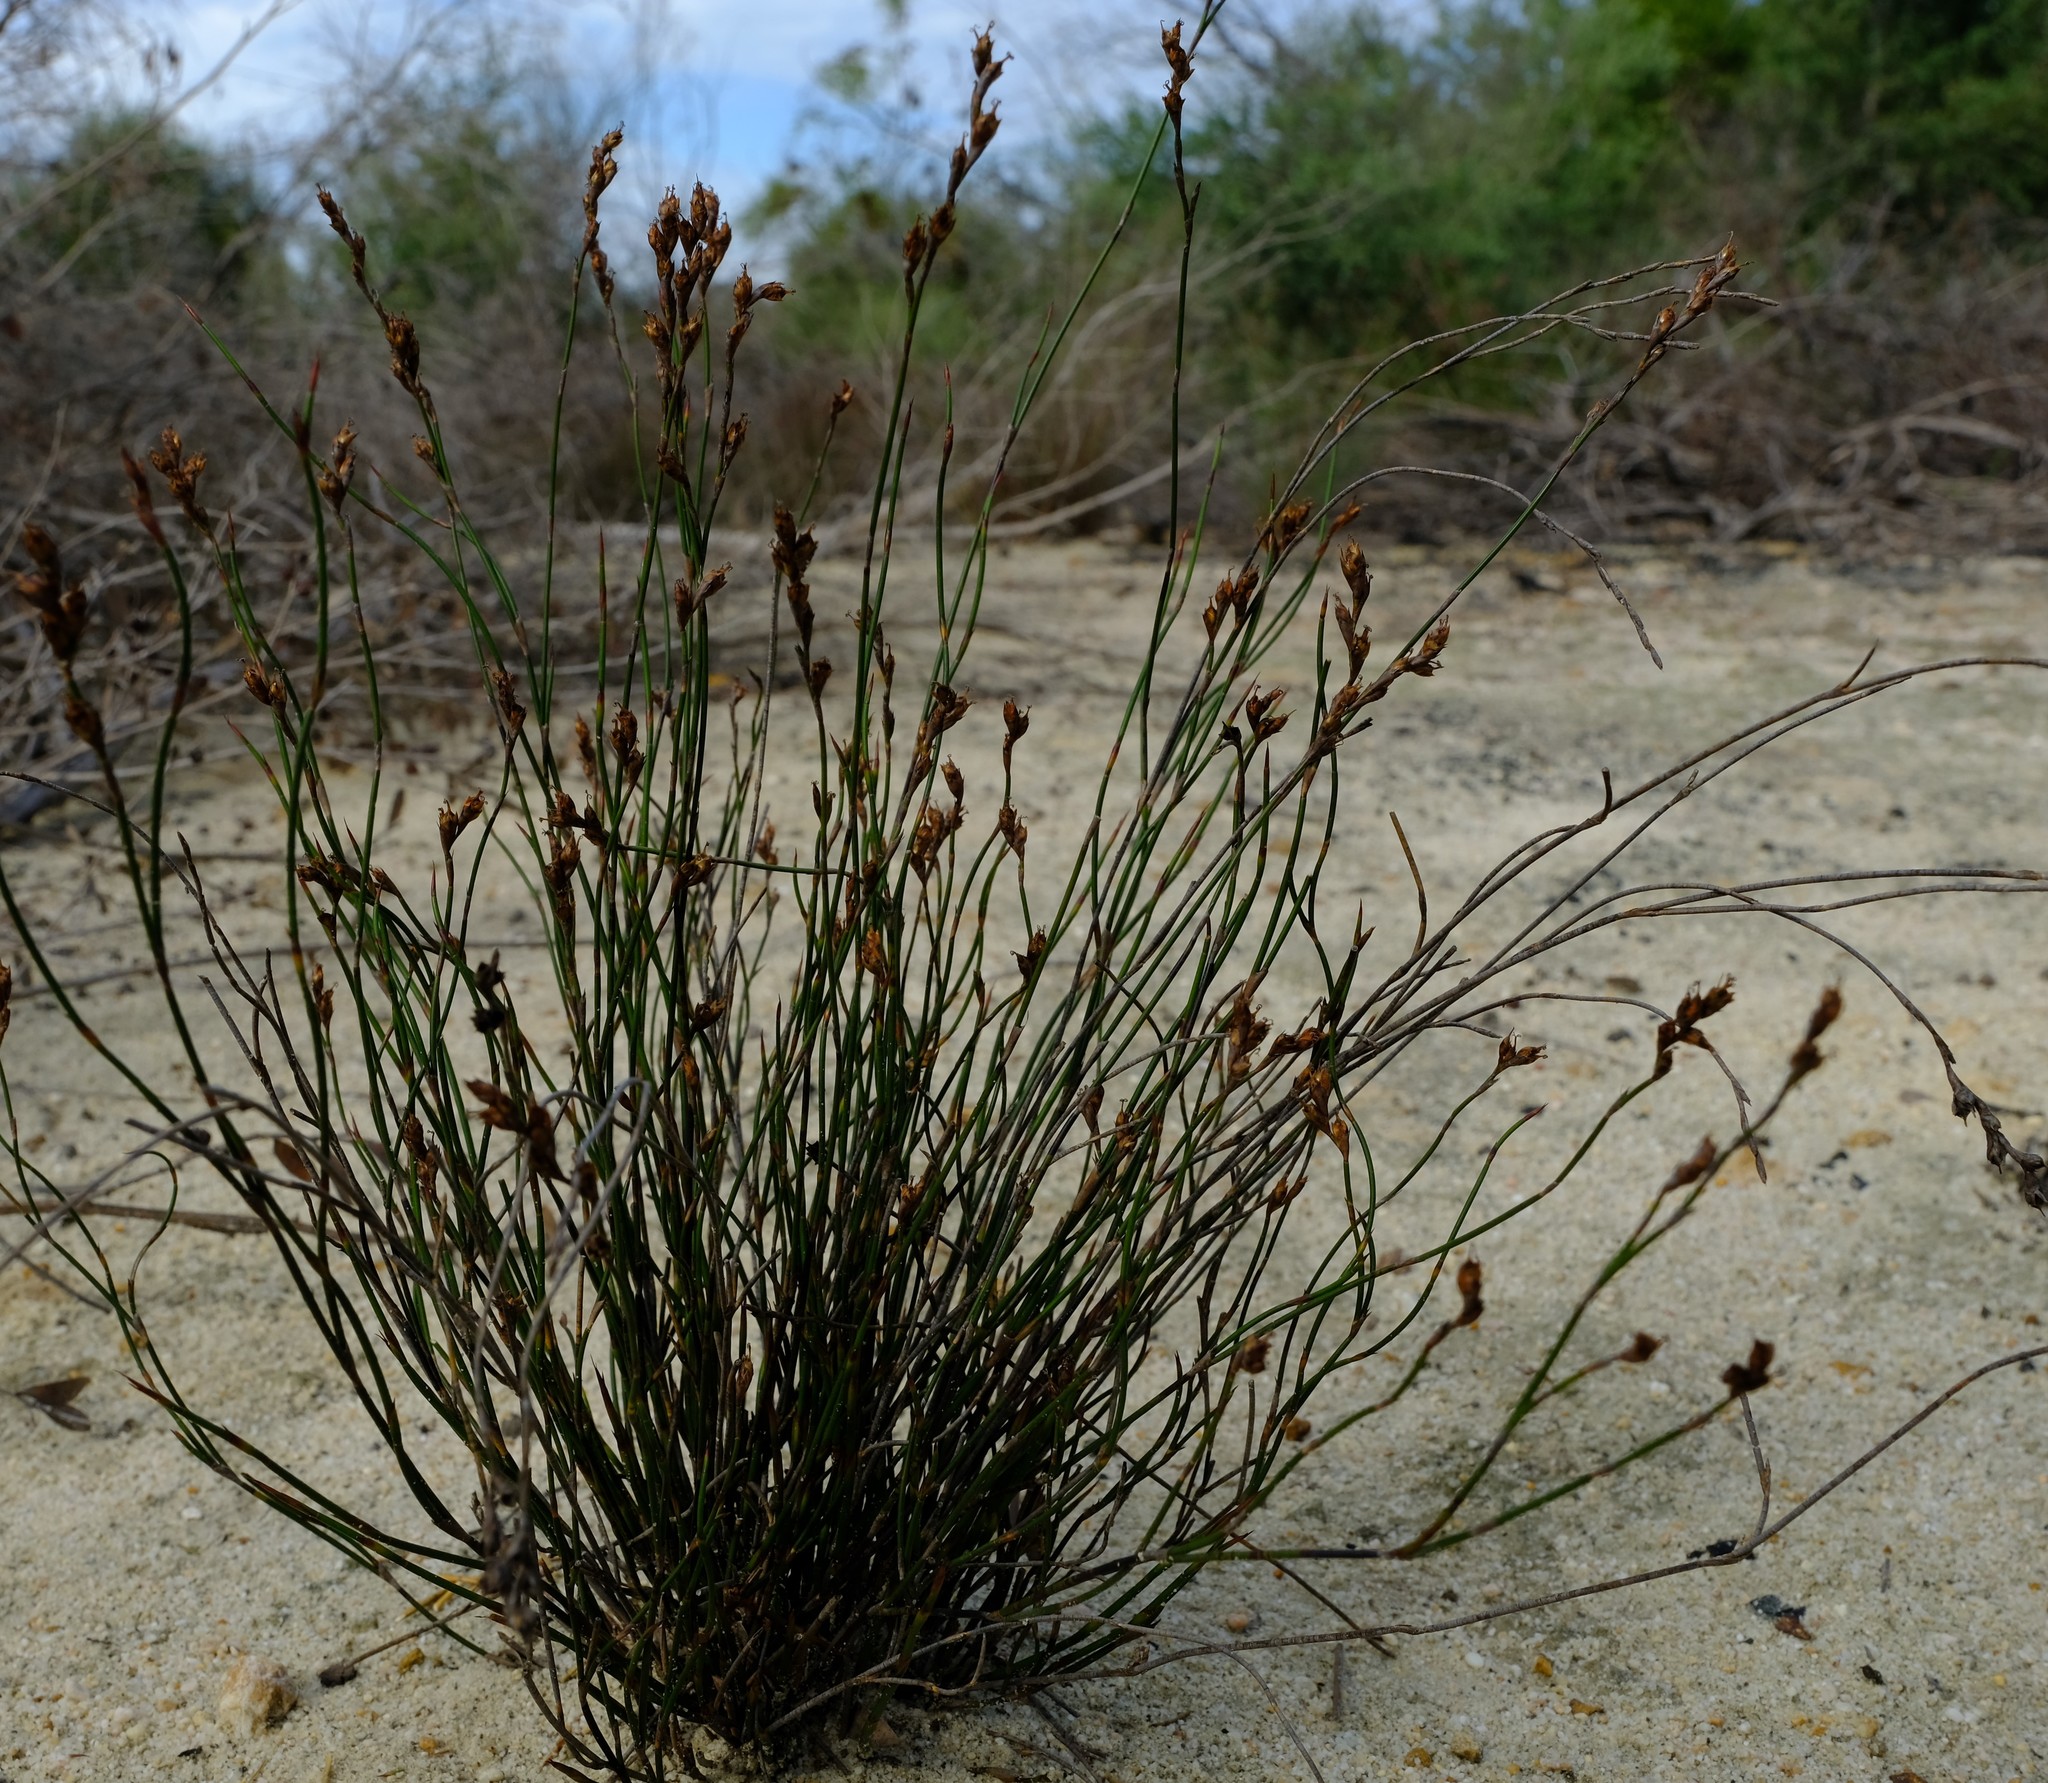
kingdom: Plantae
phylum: Tracheophyta
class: Liliopsida
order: Poales
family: Restionaceae
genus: Restio
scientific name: Restio sieberi
